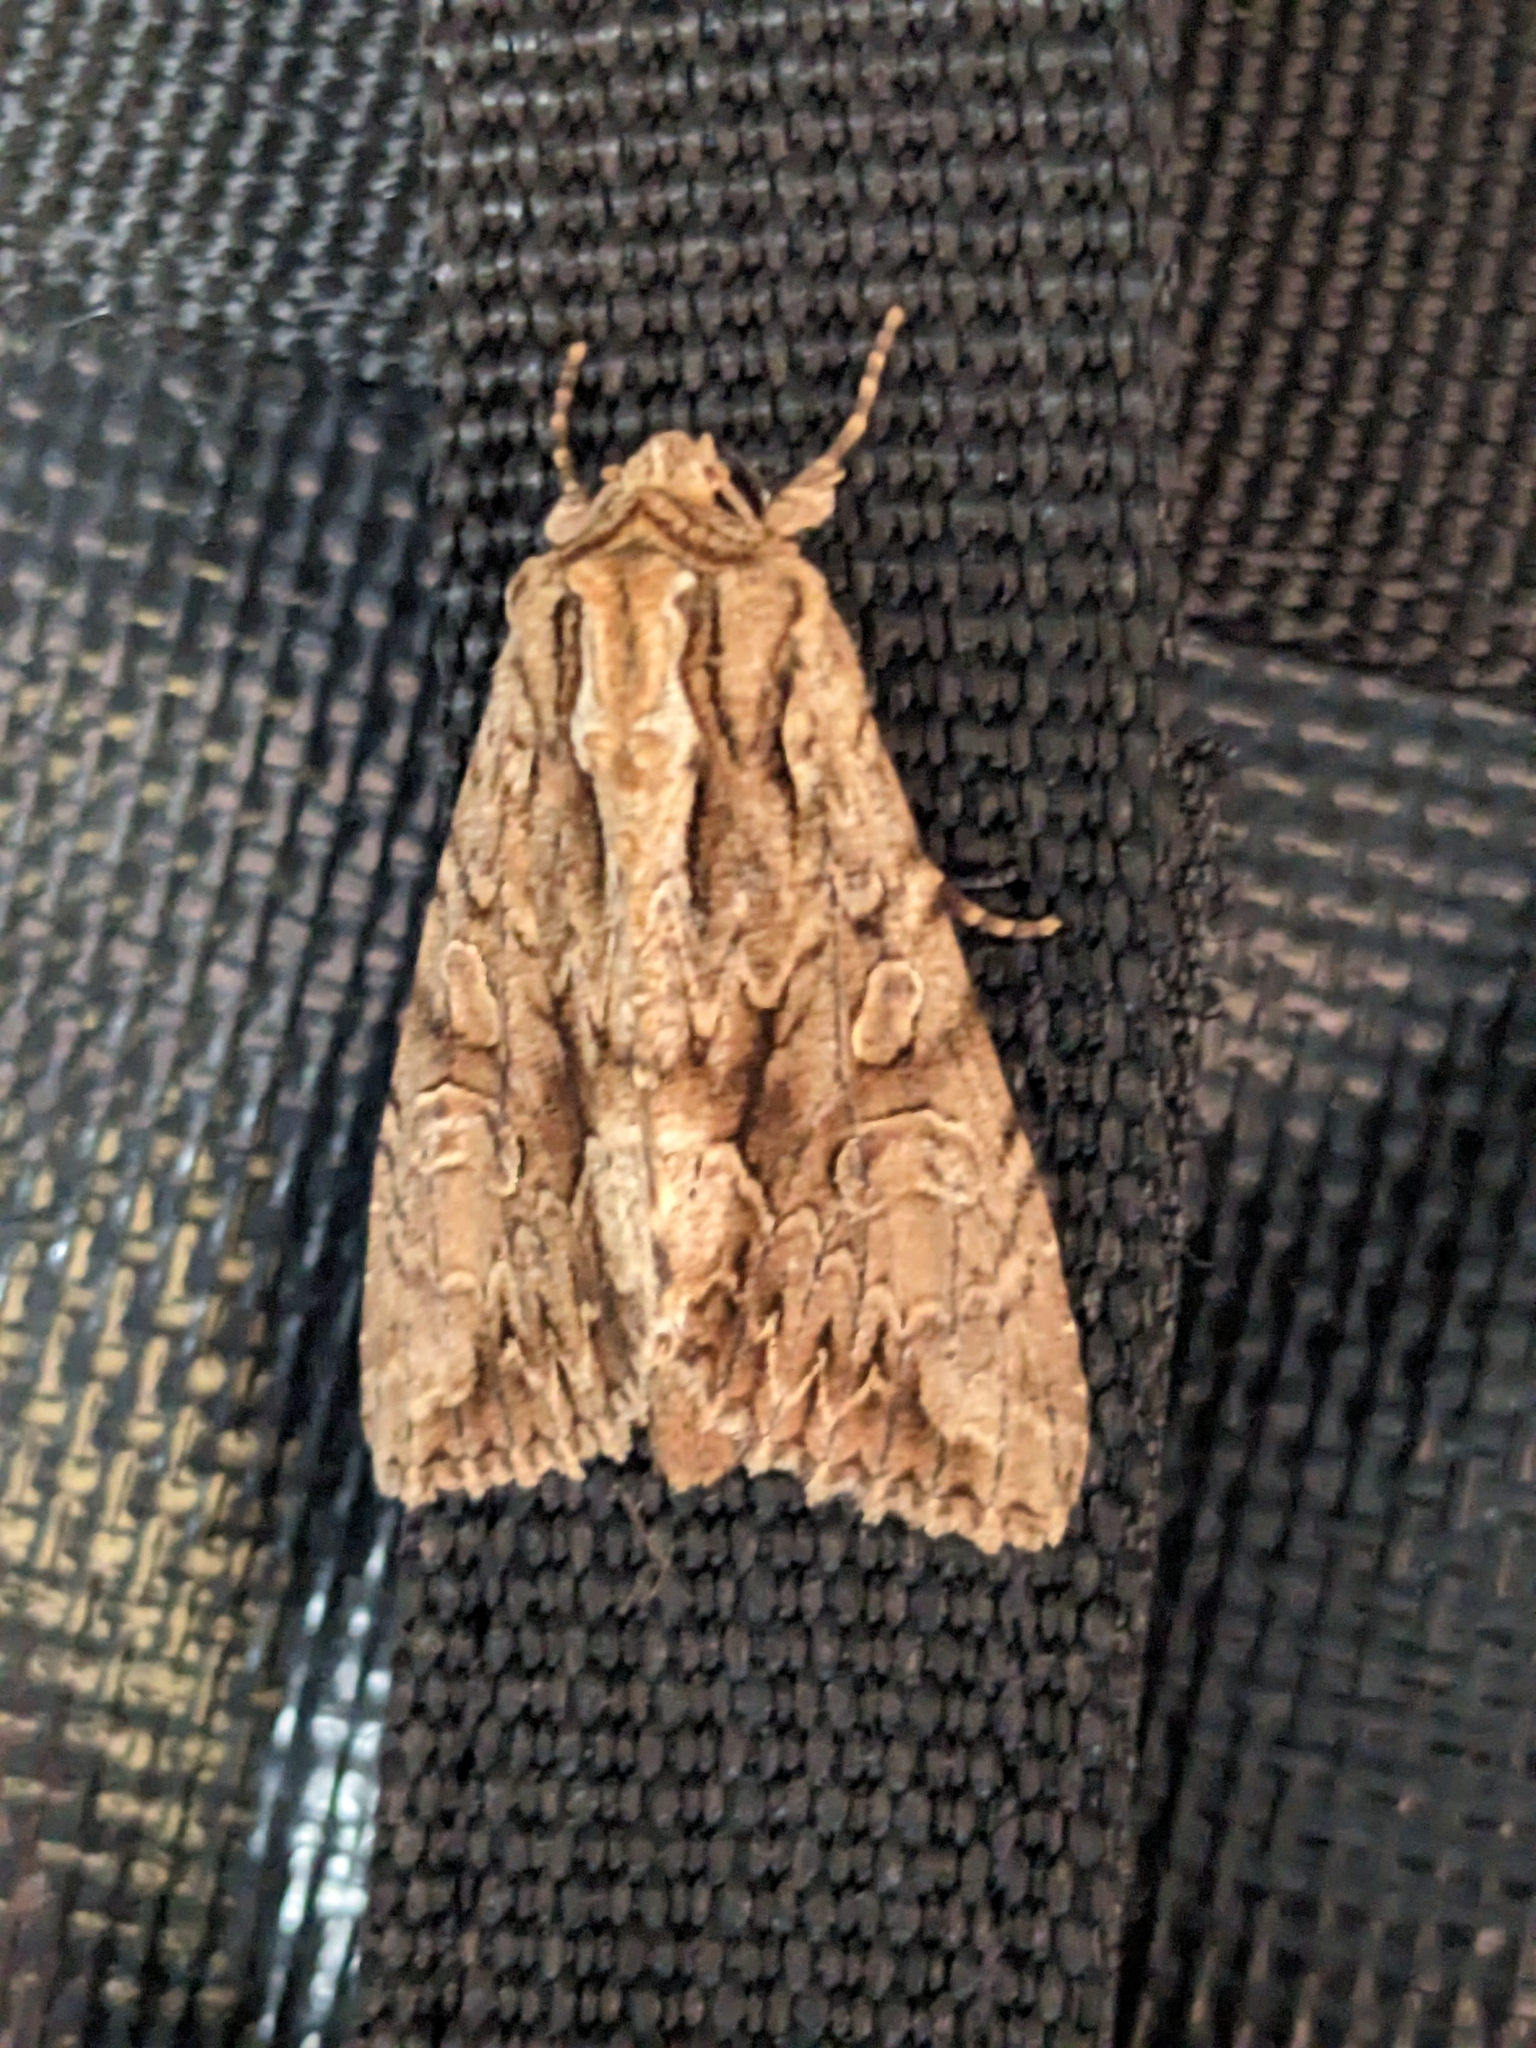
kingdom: Animalia
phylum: Arthropoda
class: Insecta
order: Lepidoptera
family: Noctuidae
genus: Apamea
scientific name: Apamea monoglypha
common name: Dark arches
